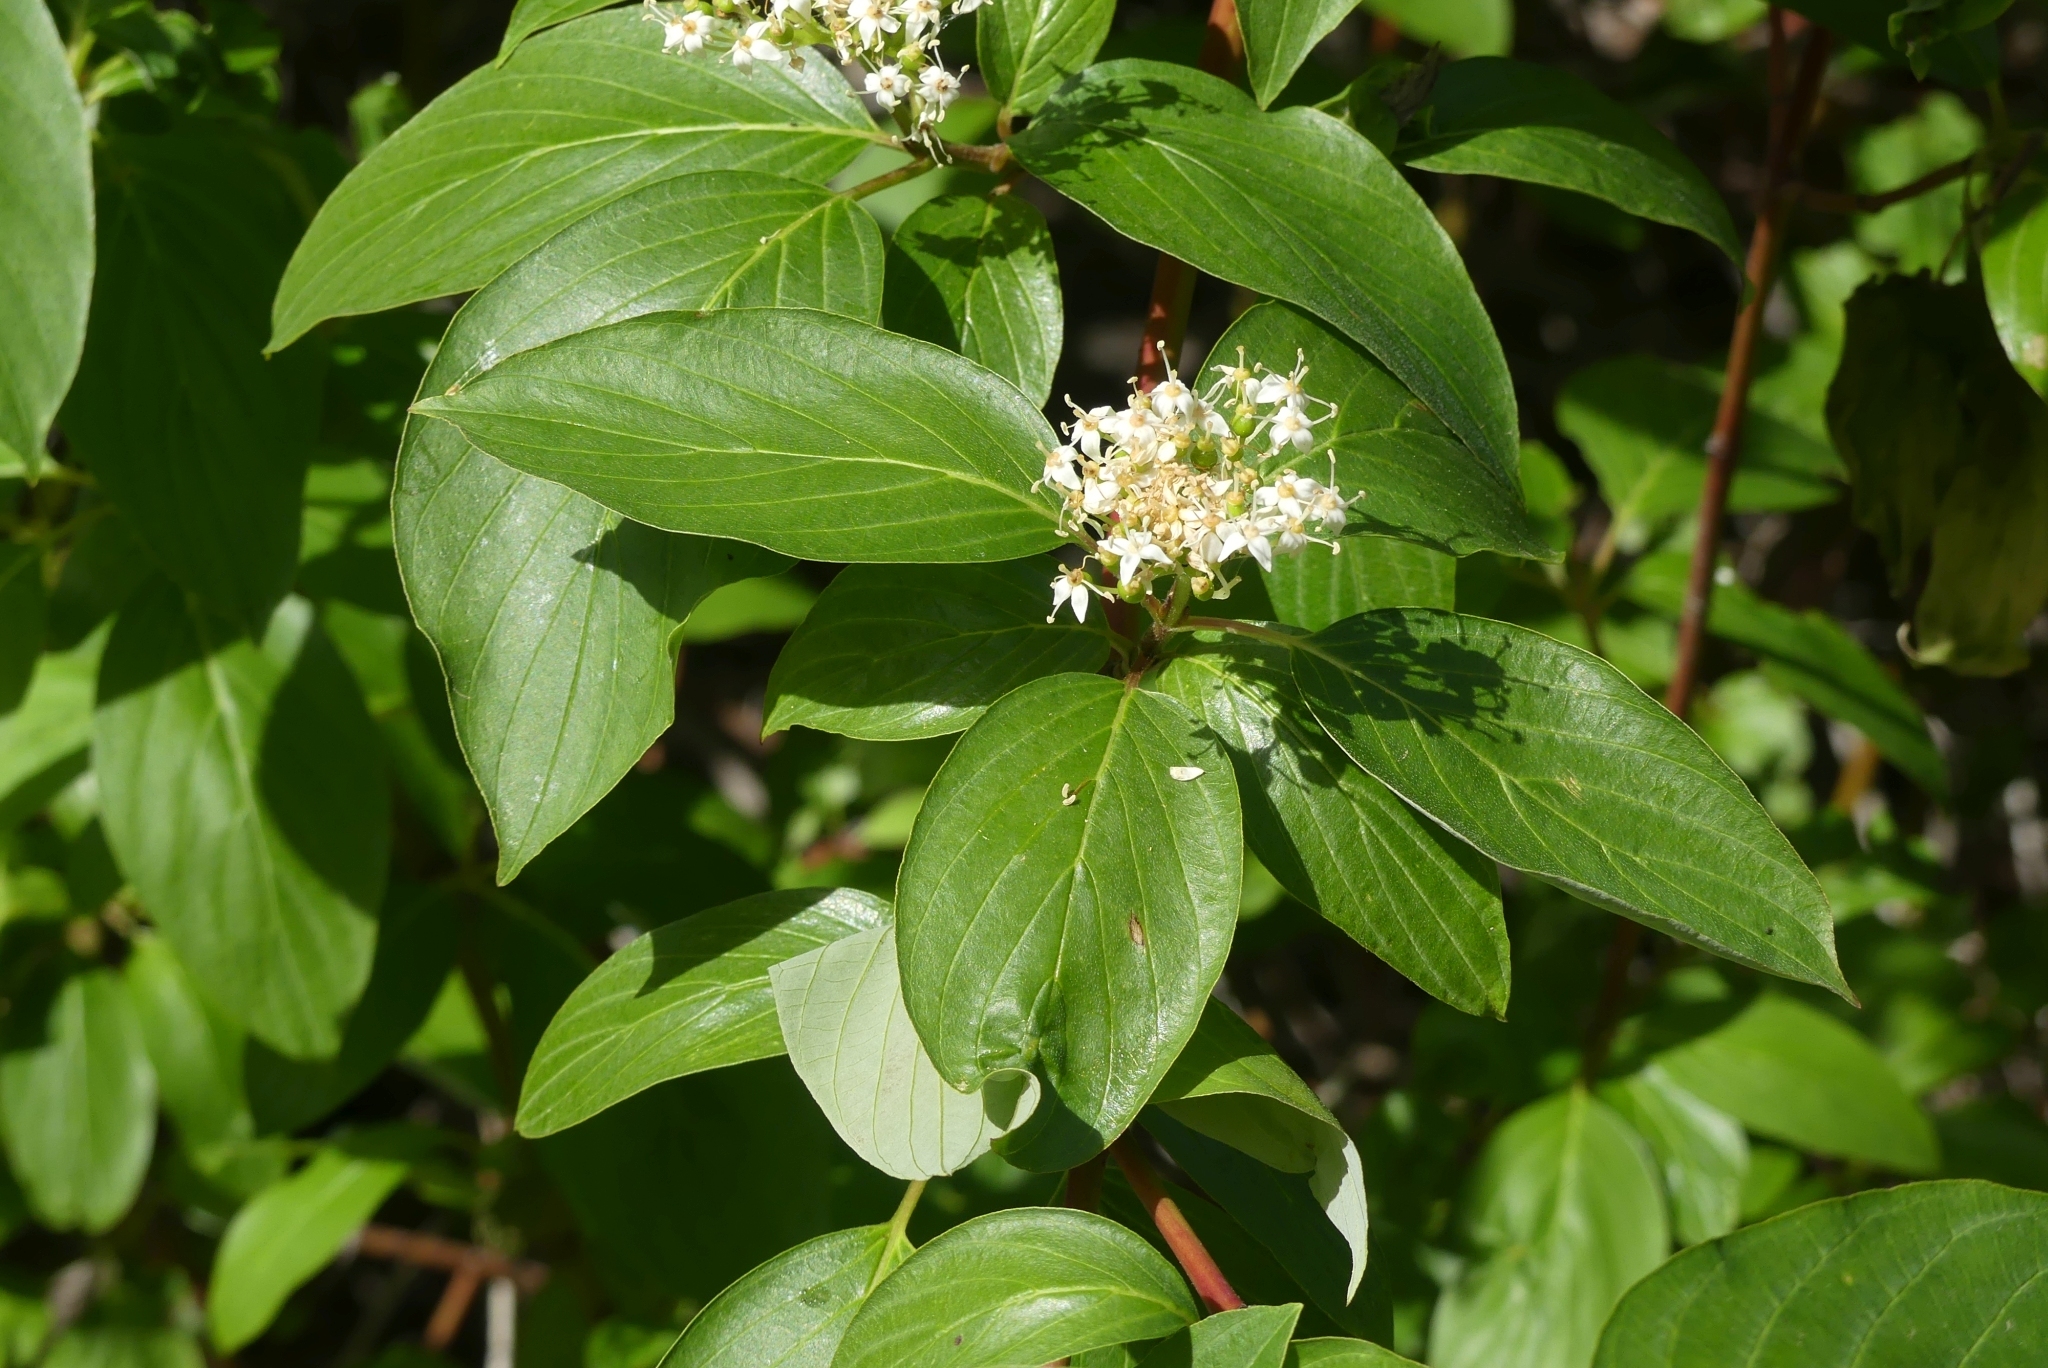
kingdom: Plantae
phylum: Tracheophyta
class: Magnoliopsida
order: Cornales
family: Cornaceae
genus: Cornus
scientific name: Cornus sericea
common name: Red-osier dogwood
